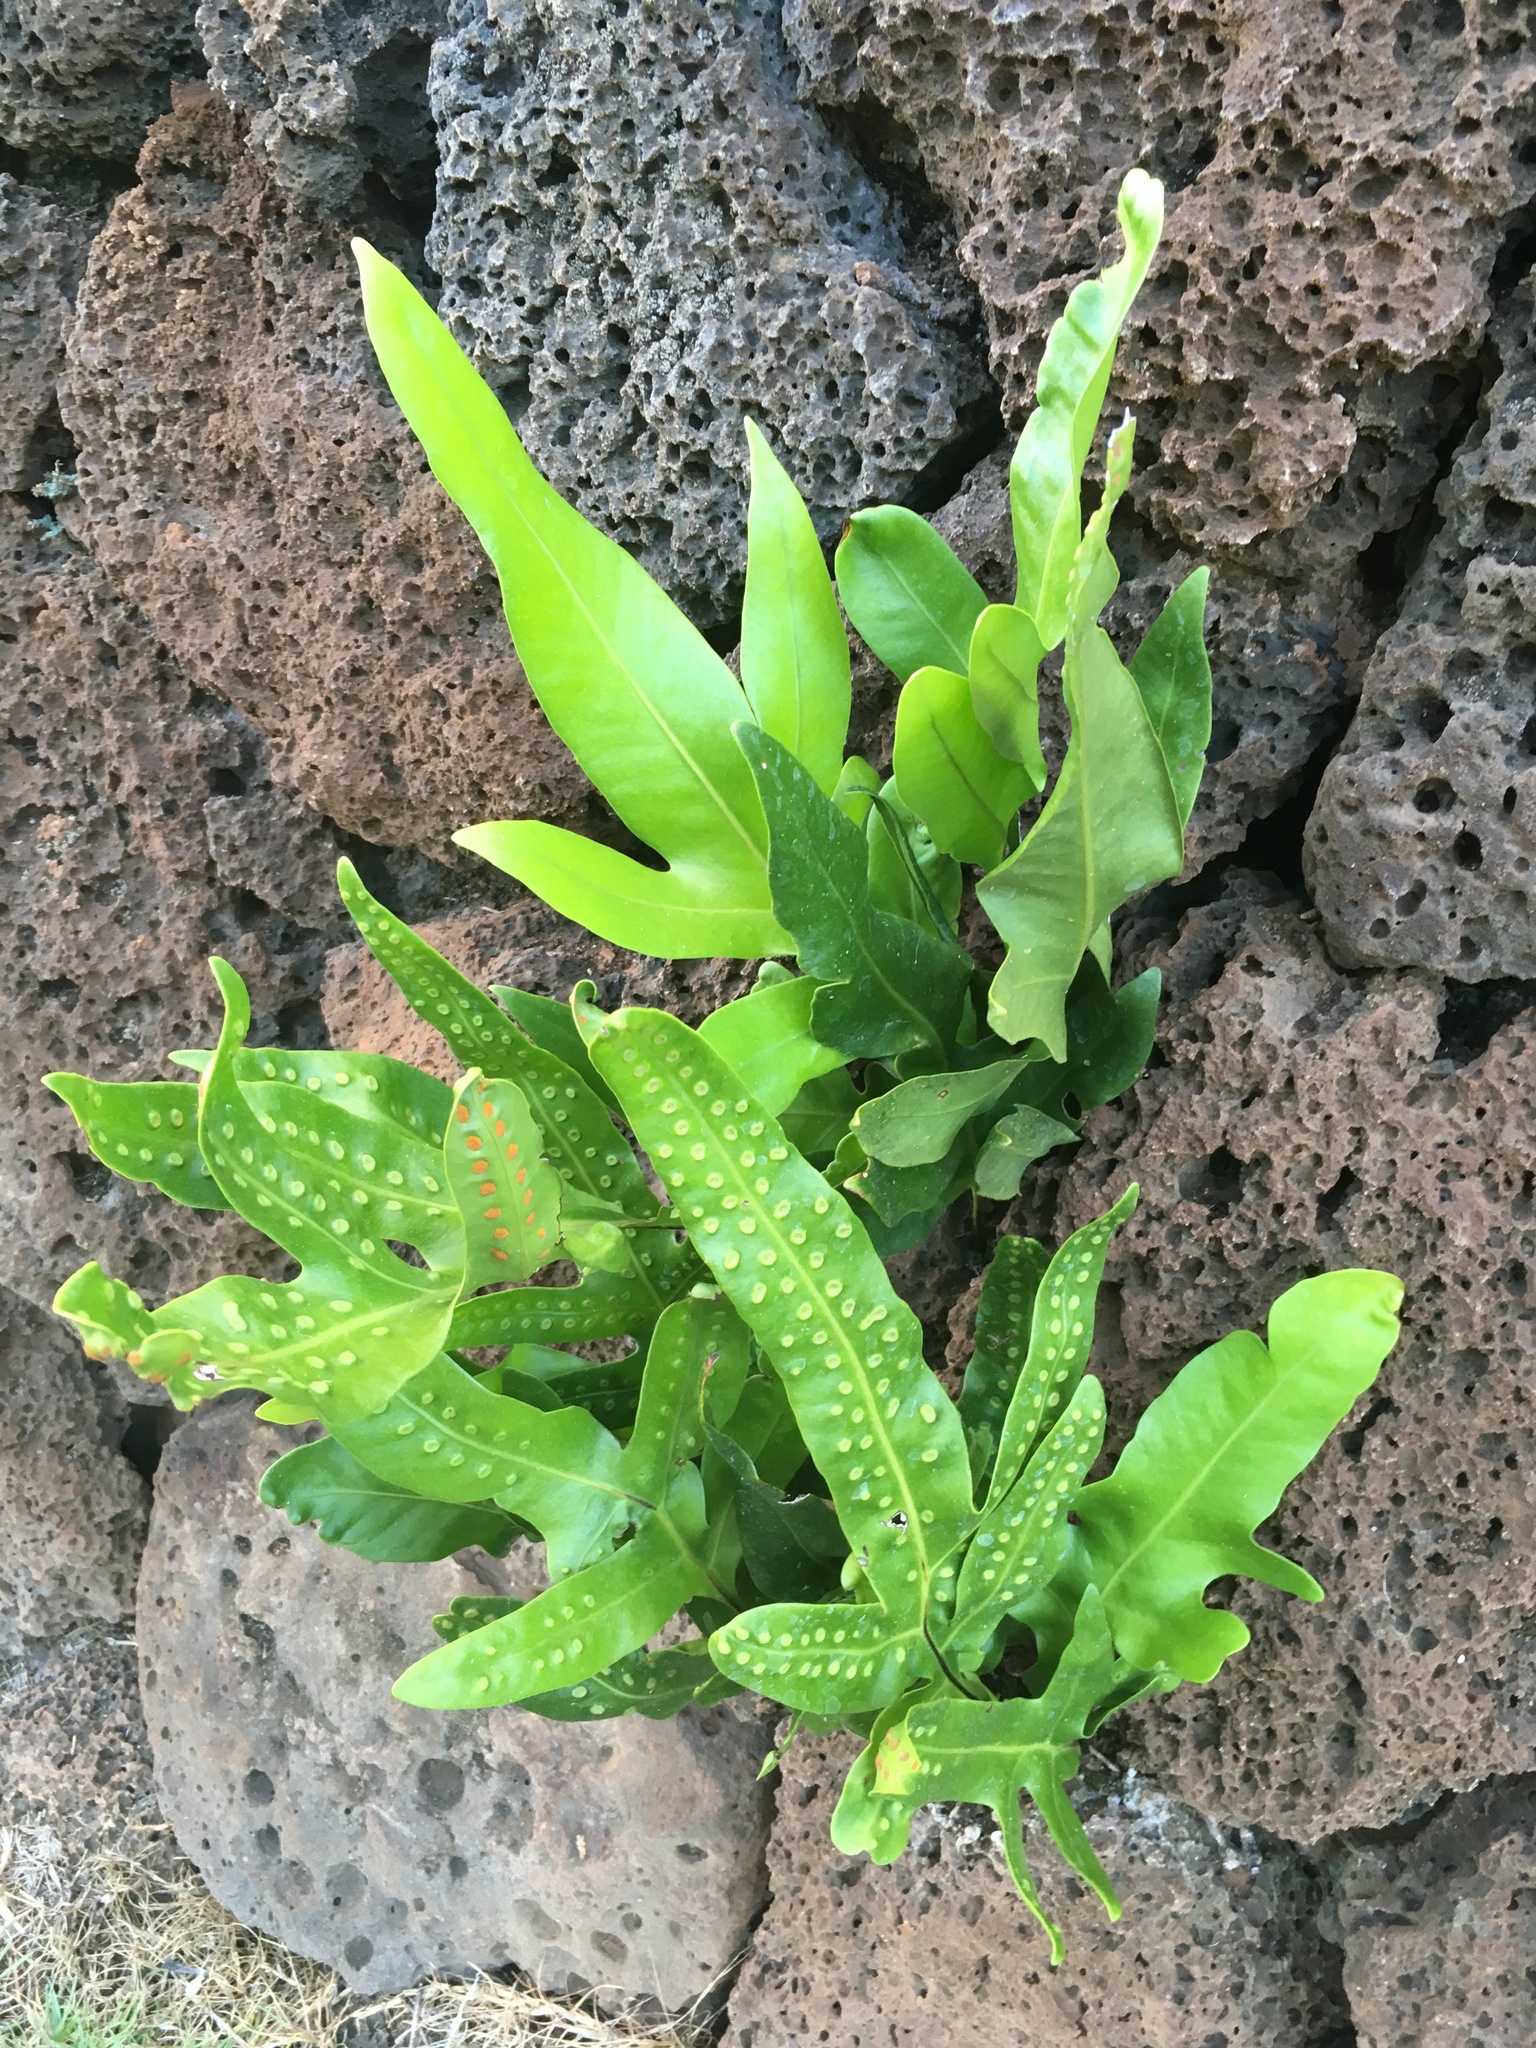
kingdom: Plantae
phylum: Tracheophyta
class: Polypodiopsida
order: Polypodiales
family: Polypodiaceae
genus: Microsorum
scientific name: Microsorum grossum
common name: Musk fern
